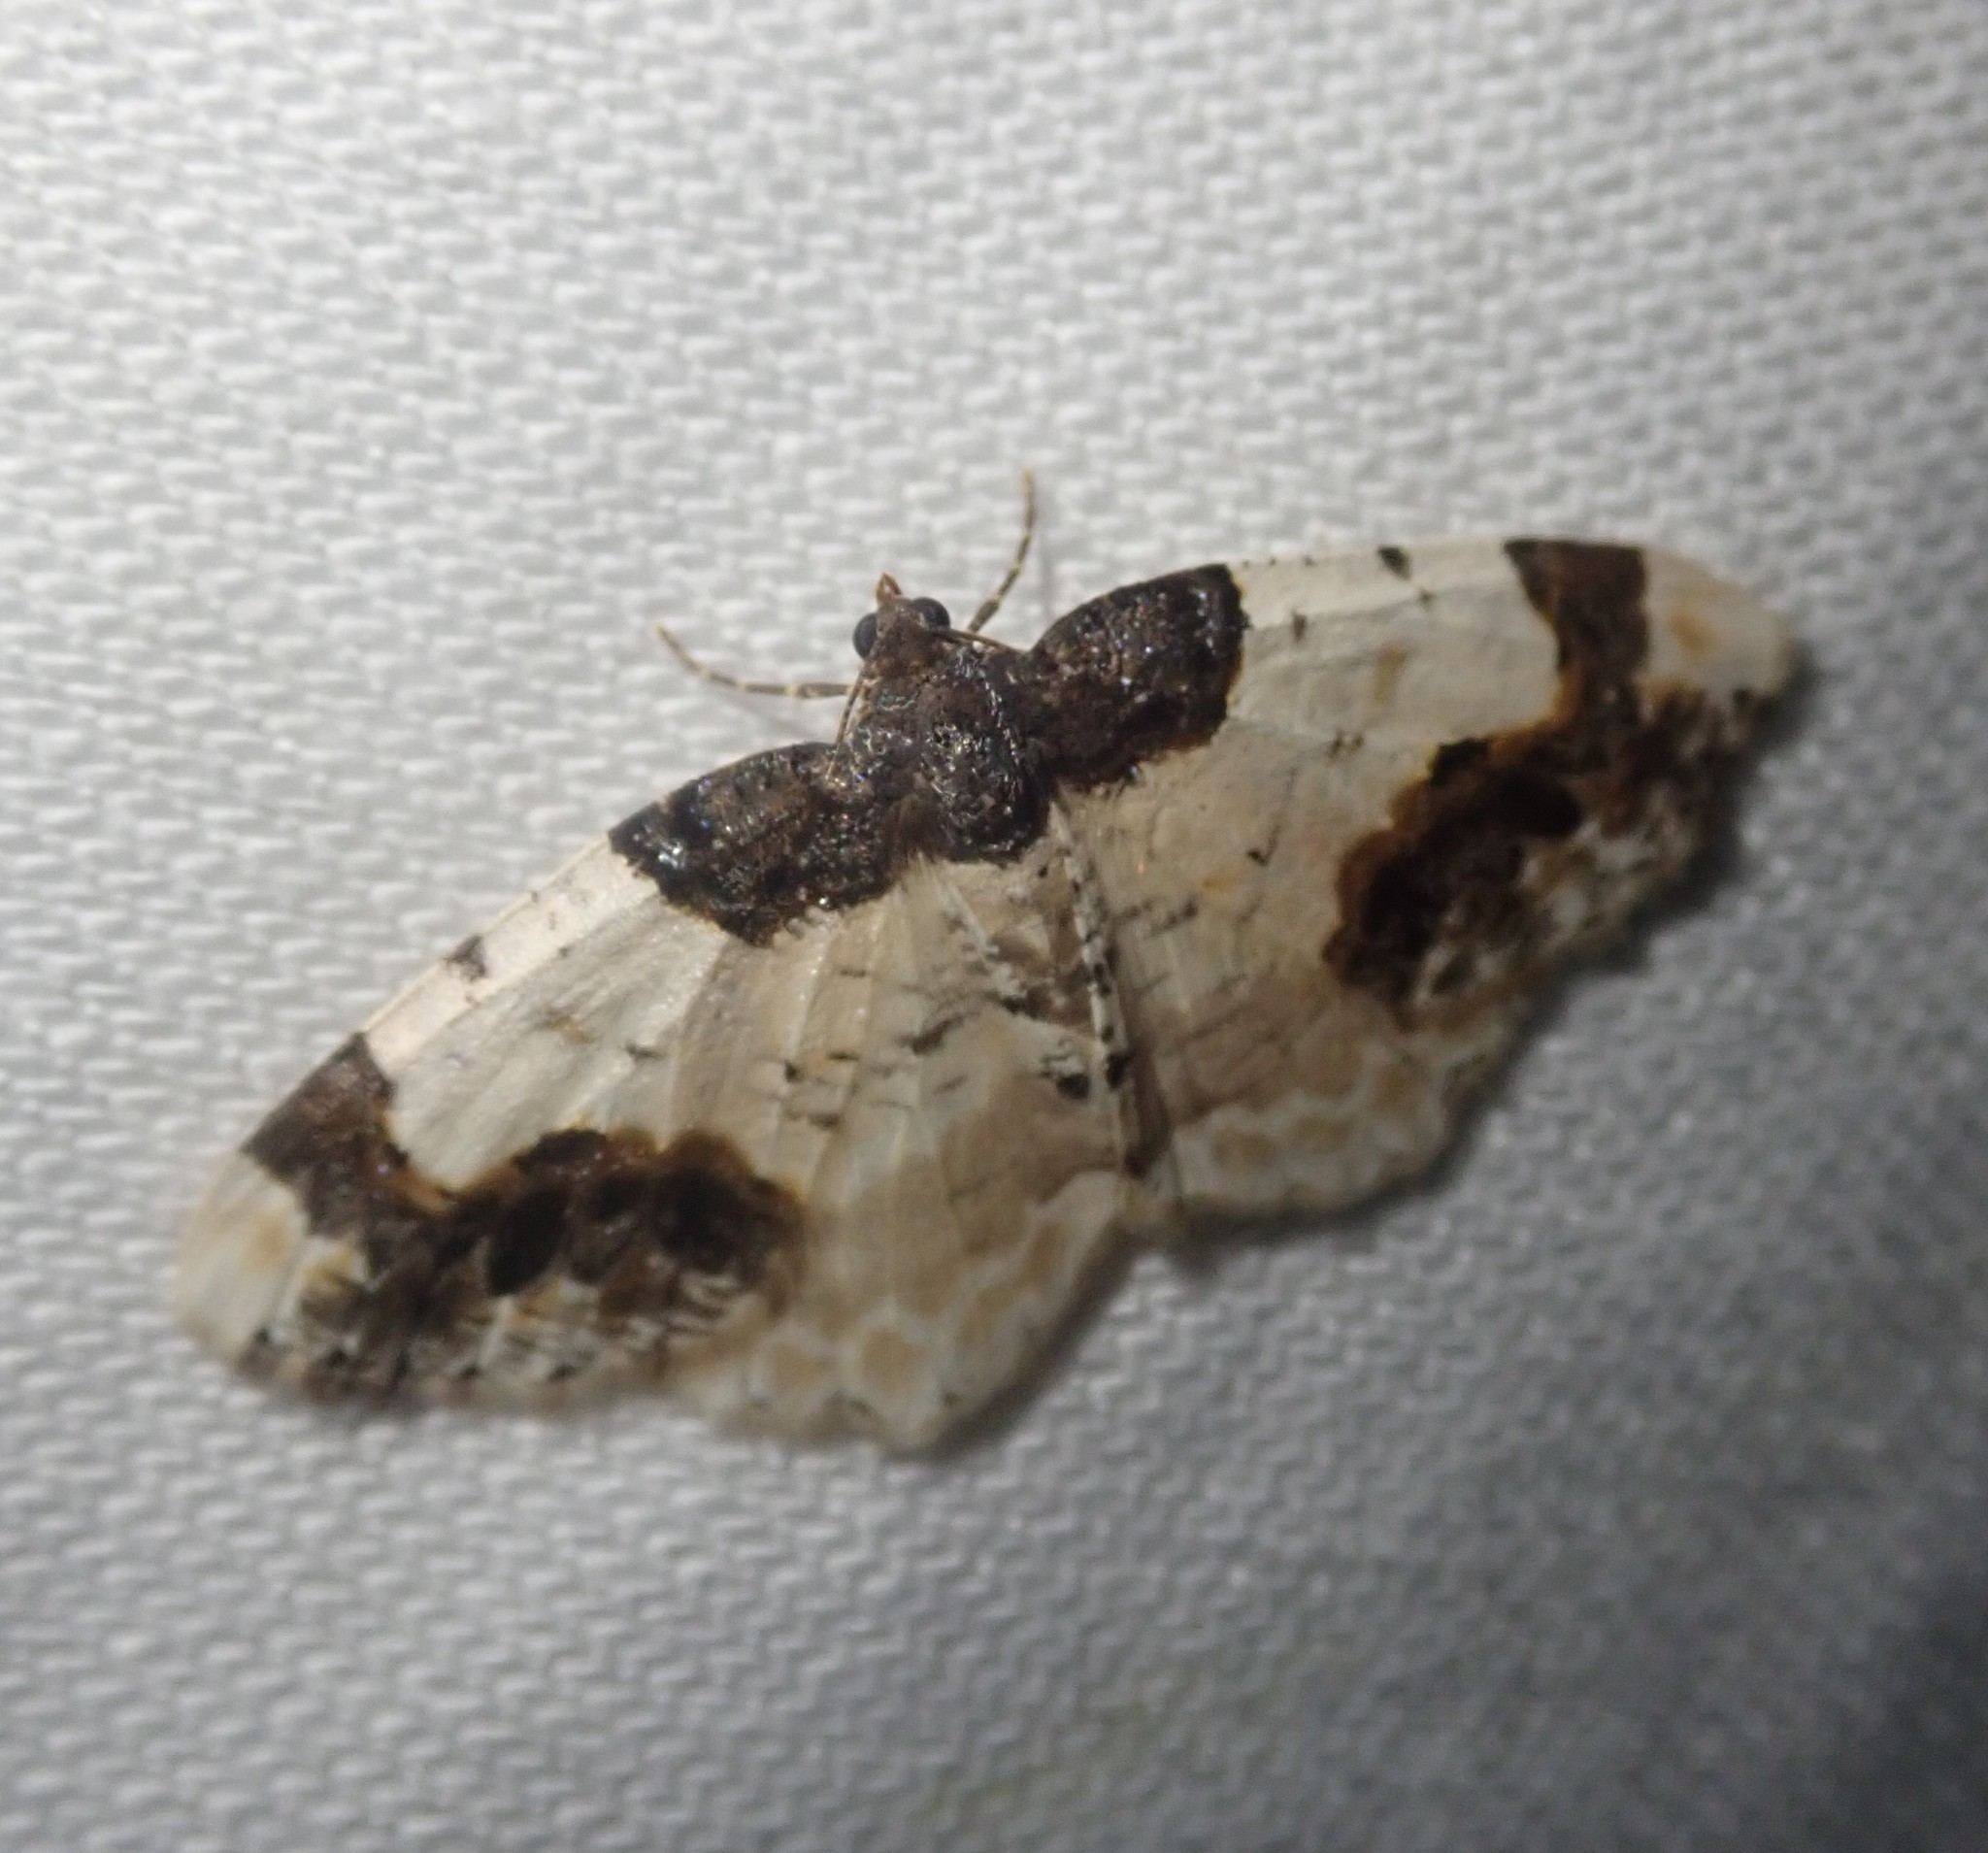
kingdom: Animalia
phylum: Arthropoda
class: Insecta
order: Lepidoptera
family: Geometridae
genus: Ligdia
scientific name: Ligdia adustata
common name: Scorched carpet
